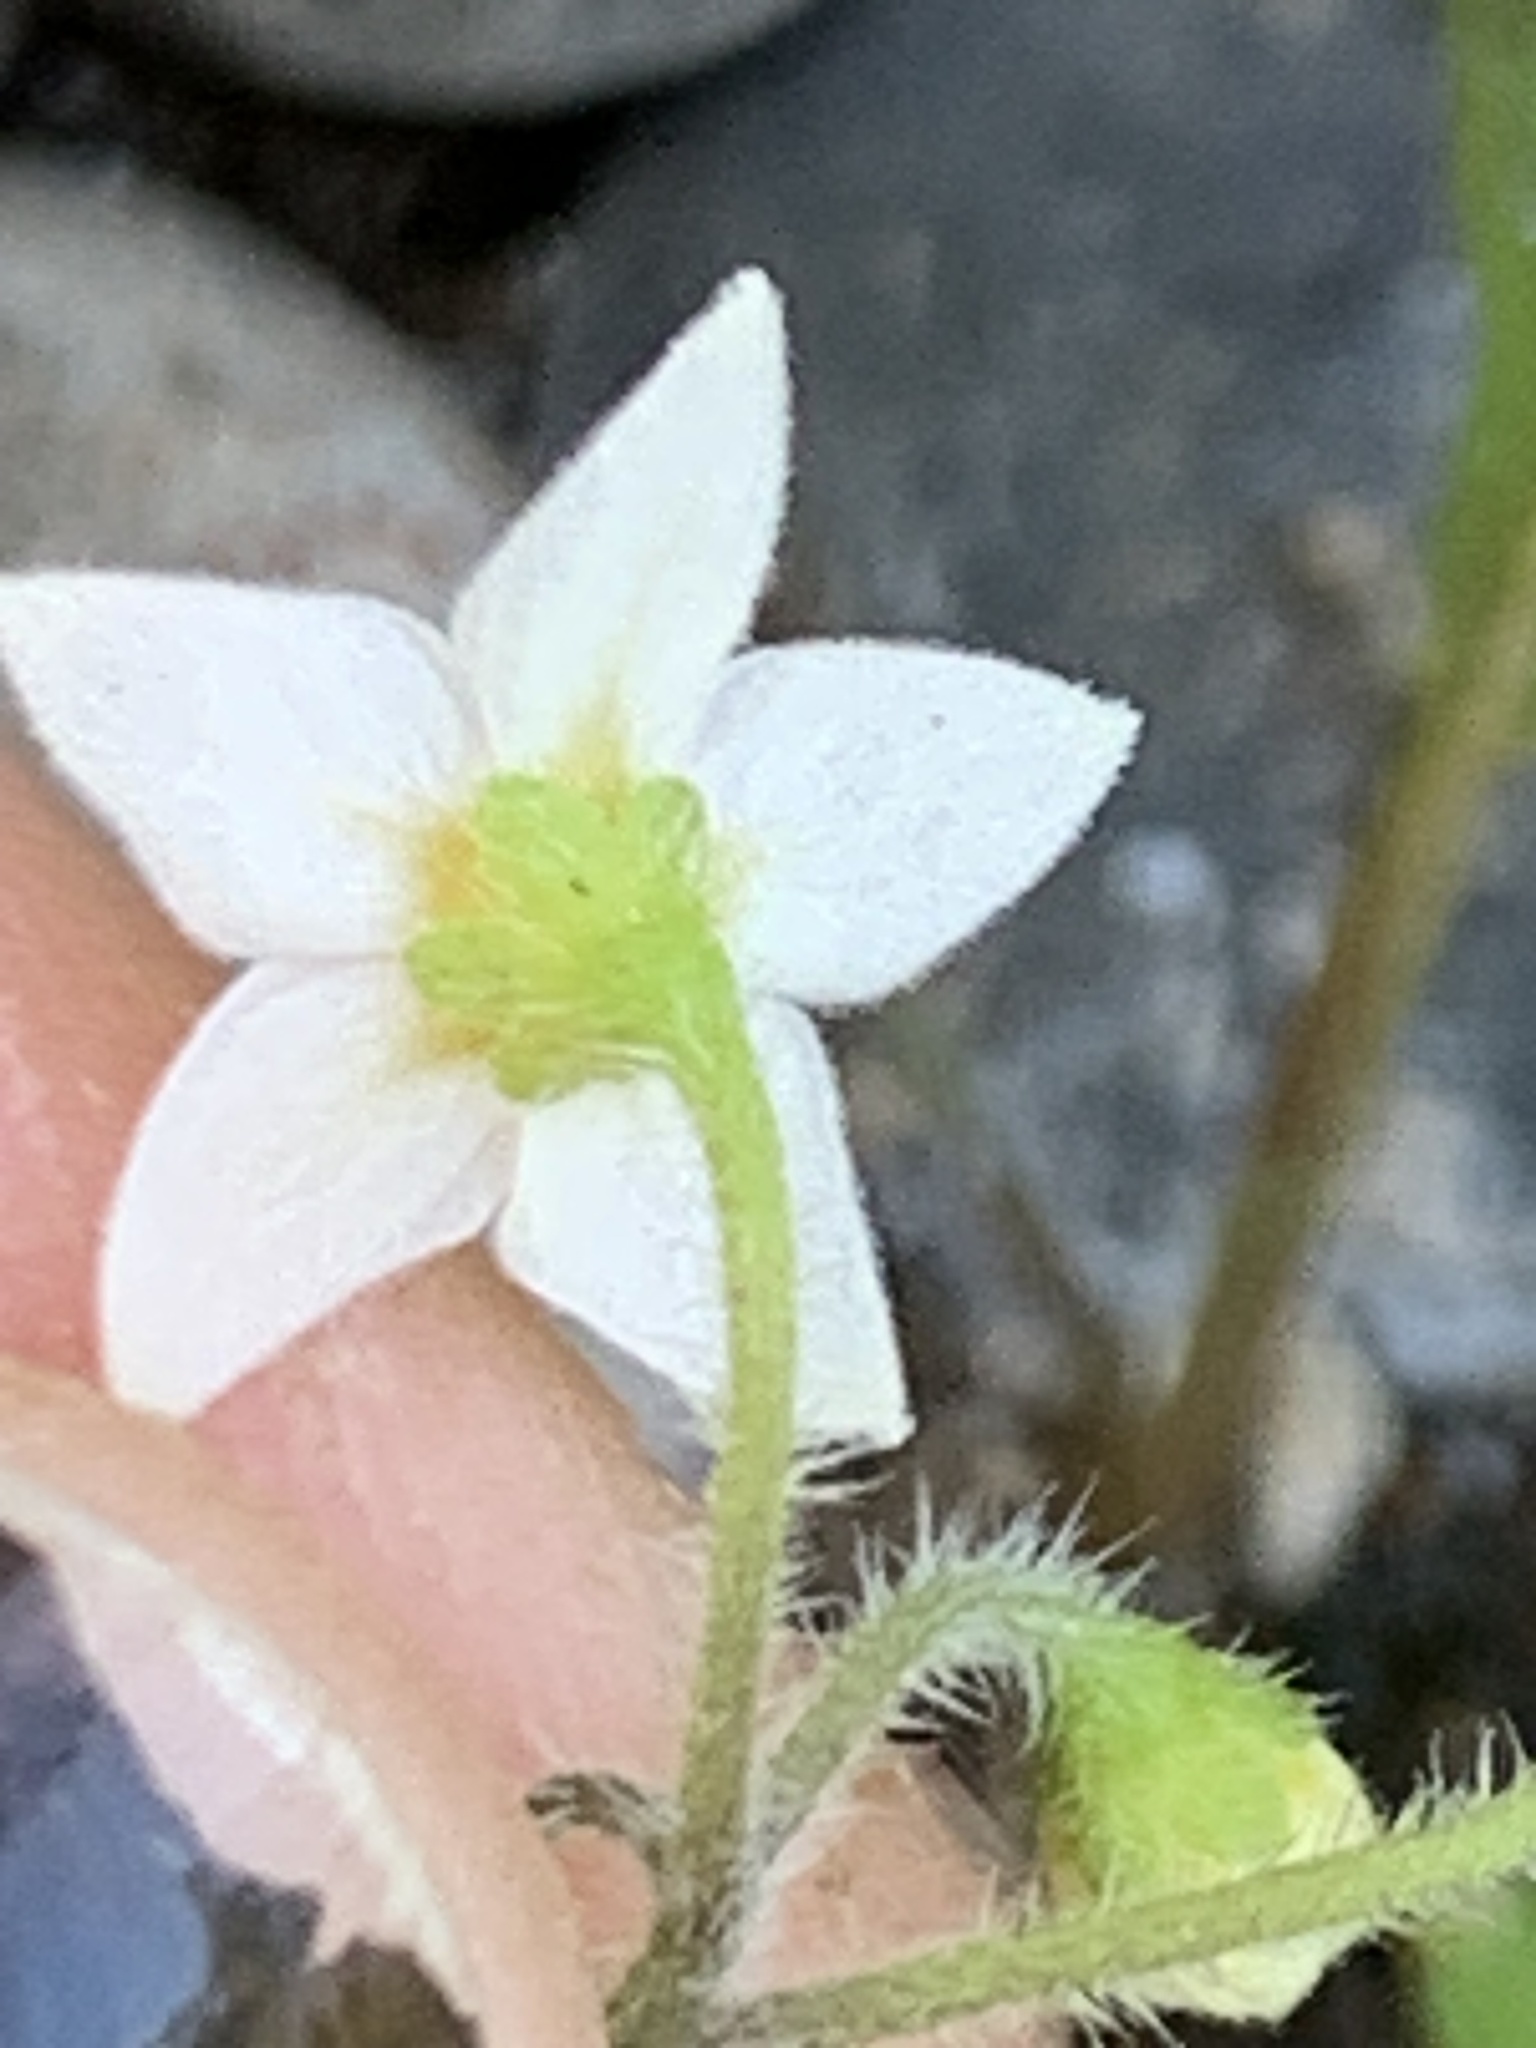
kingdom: Plantae
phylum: Tracheophyta
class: Magnoliopsida
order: Solanales
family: Solanaceae
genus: Solanum
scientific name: Solanum nigrum
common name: Black nightshade
